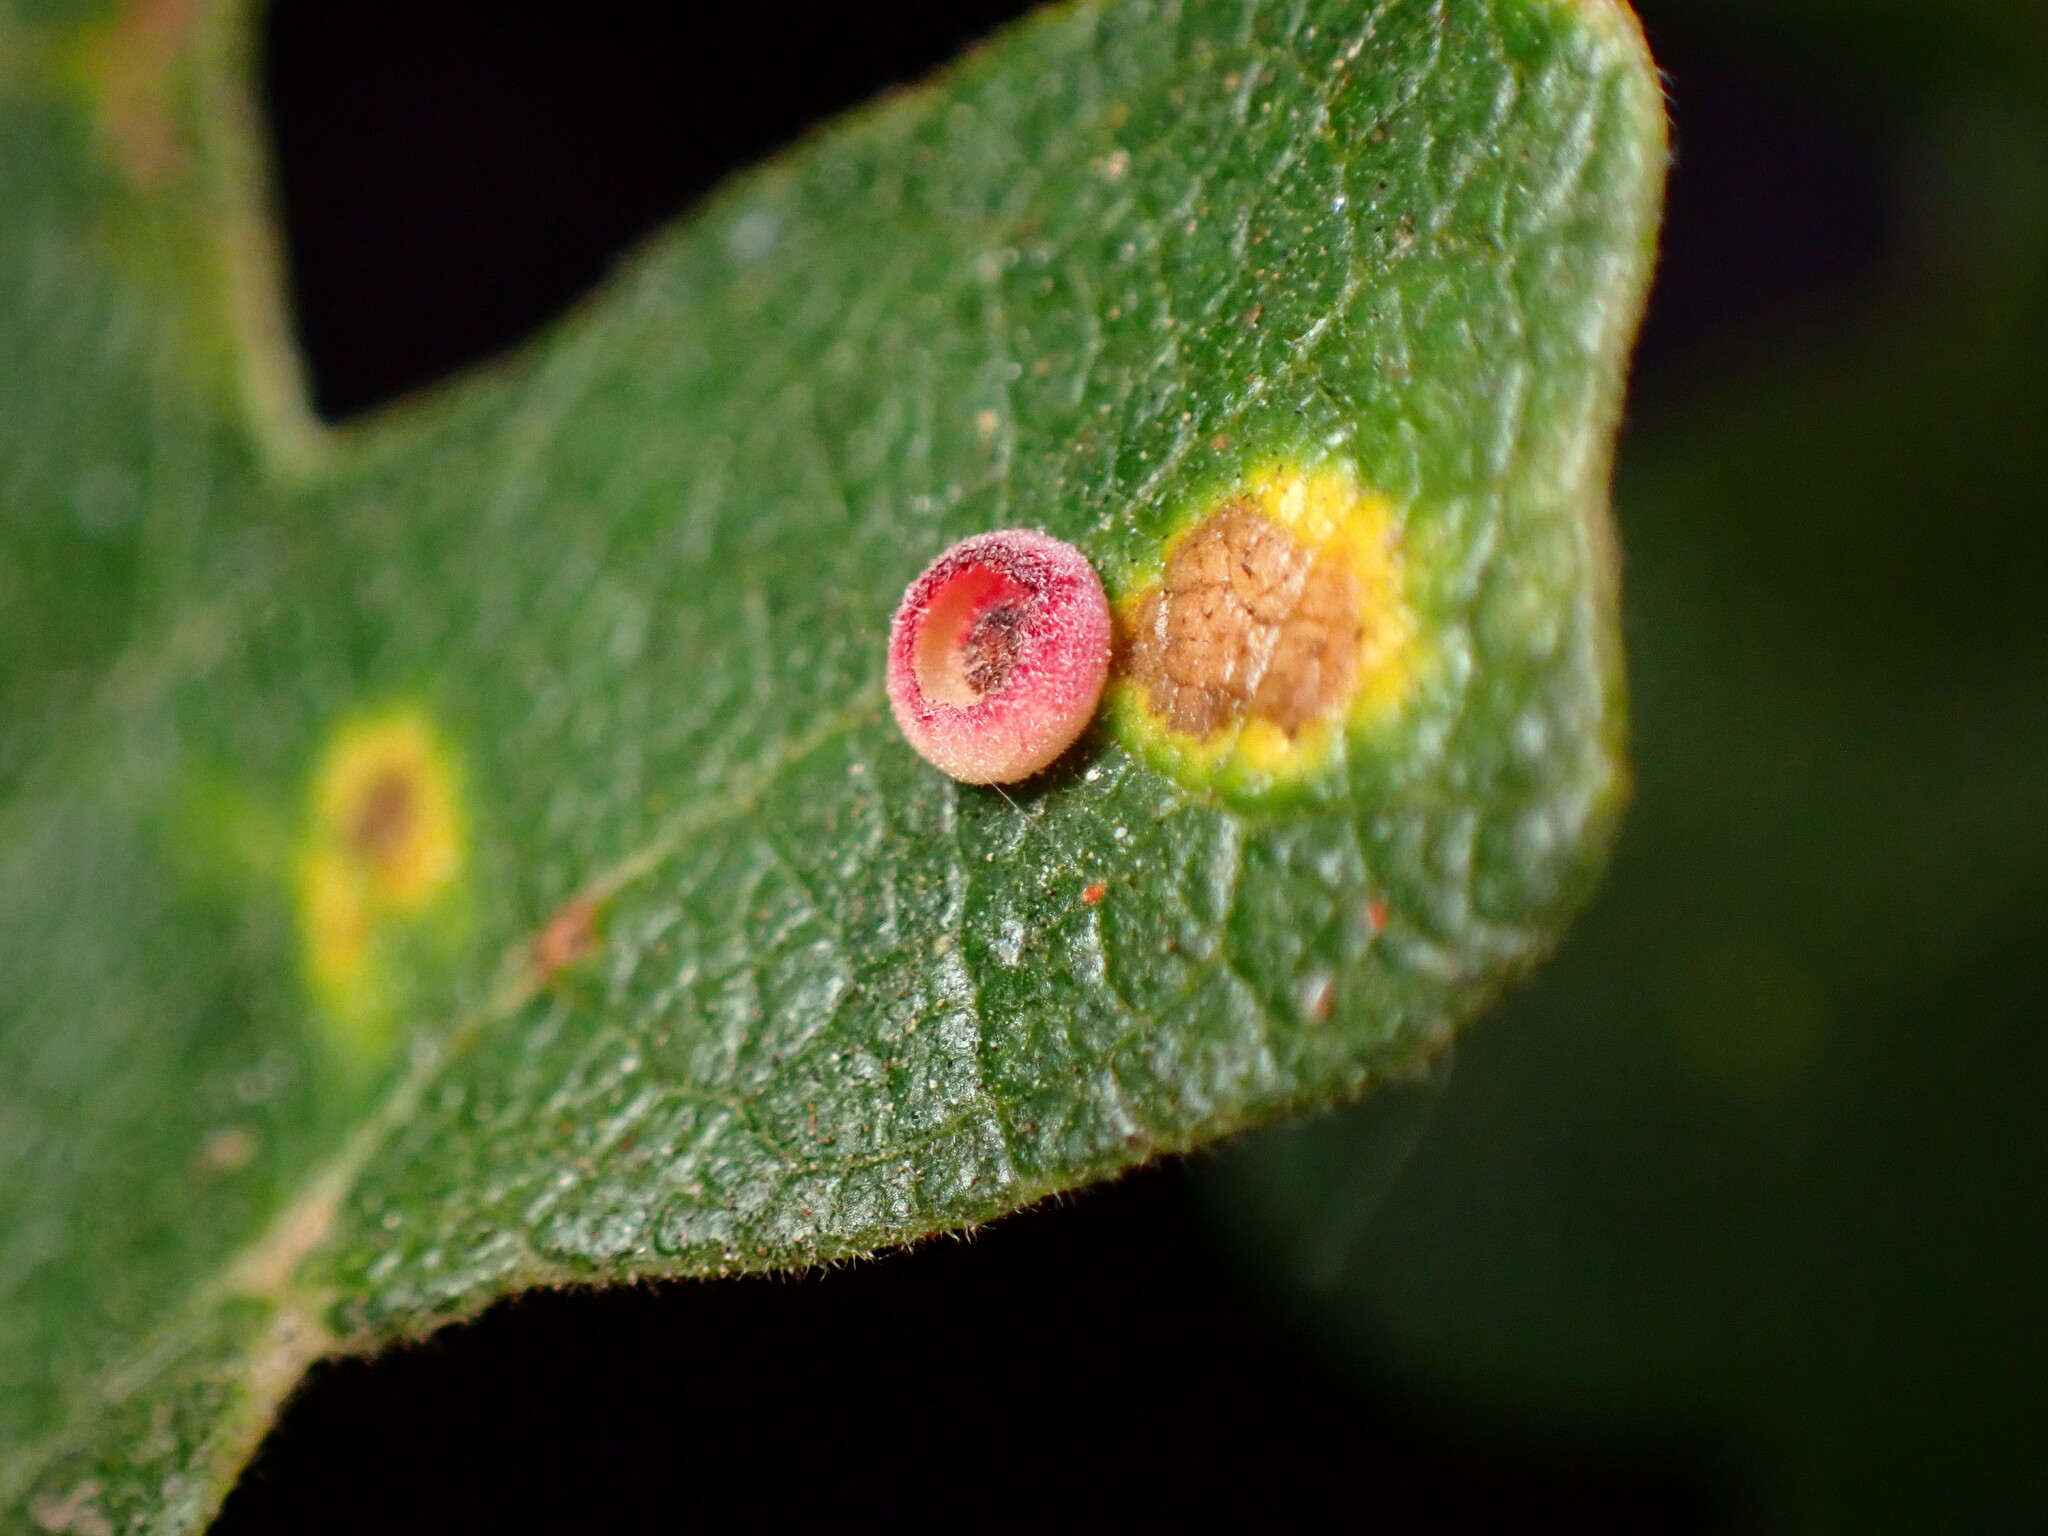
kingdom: Animalia
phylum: Arthropoda
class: Insecta
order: Hymenoptera
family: Cynipidae
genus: Andricus
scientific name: Andricus
